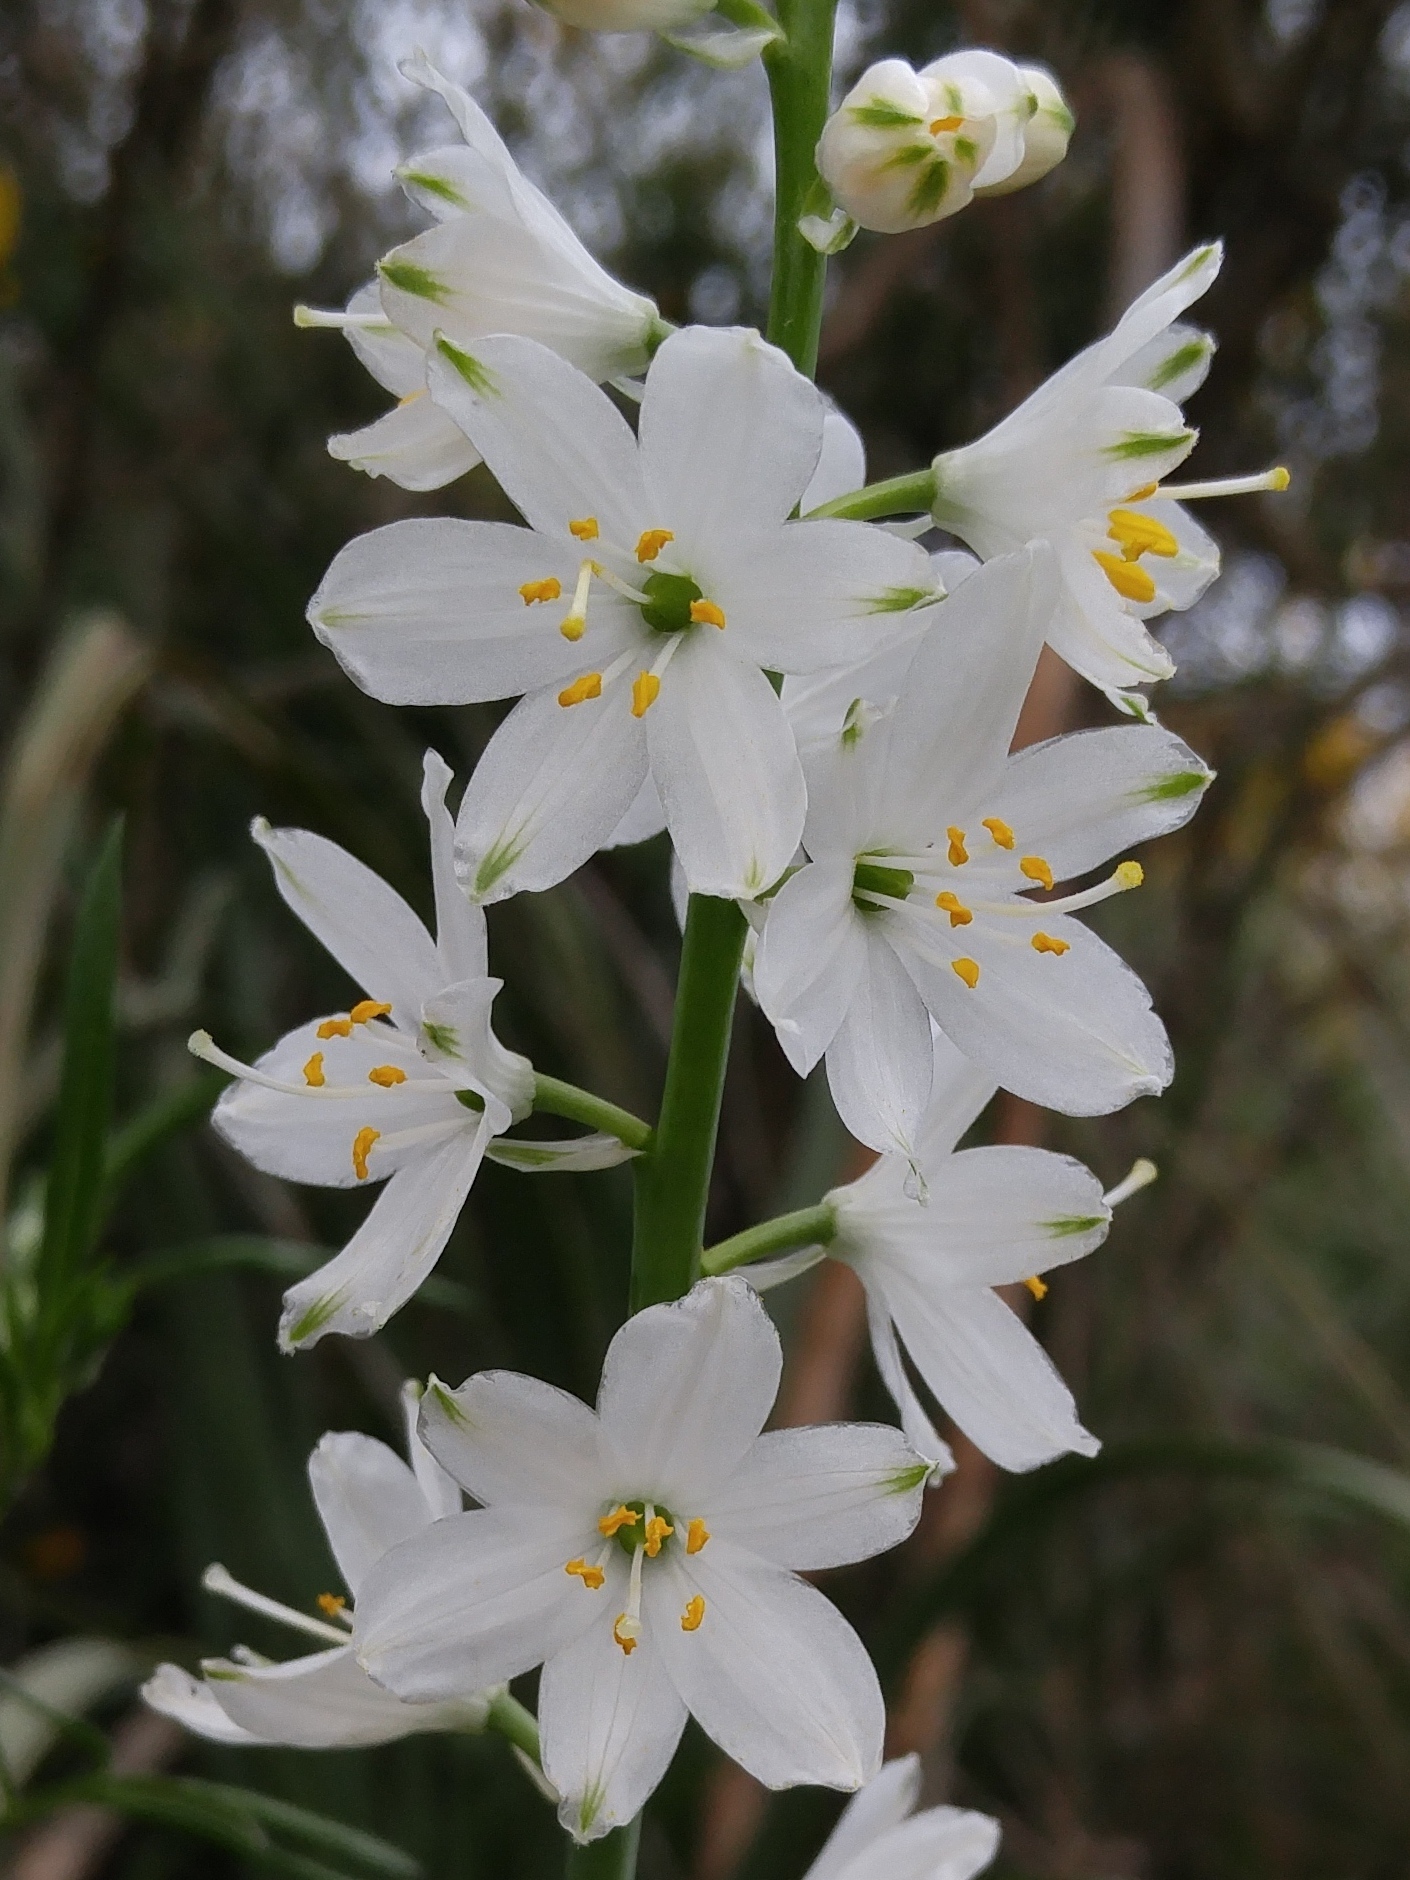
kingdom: Plantae
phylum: Tracheophyta
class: Liliopsida
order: Asparagales
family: Asparagaceae
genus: Anthericum
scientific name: Anthericum baeticum
